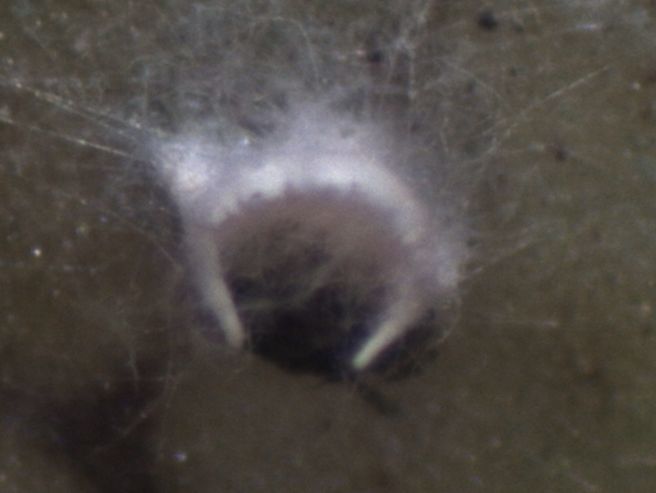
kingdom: Fungi
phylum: Ascomycota
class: Lecanoromycetes
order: Lecanorales
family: Byssolomataceae
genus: Badimiella
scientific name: Badimiella pteridophila
